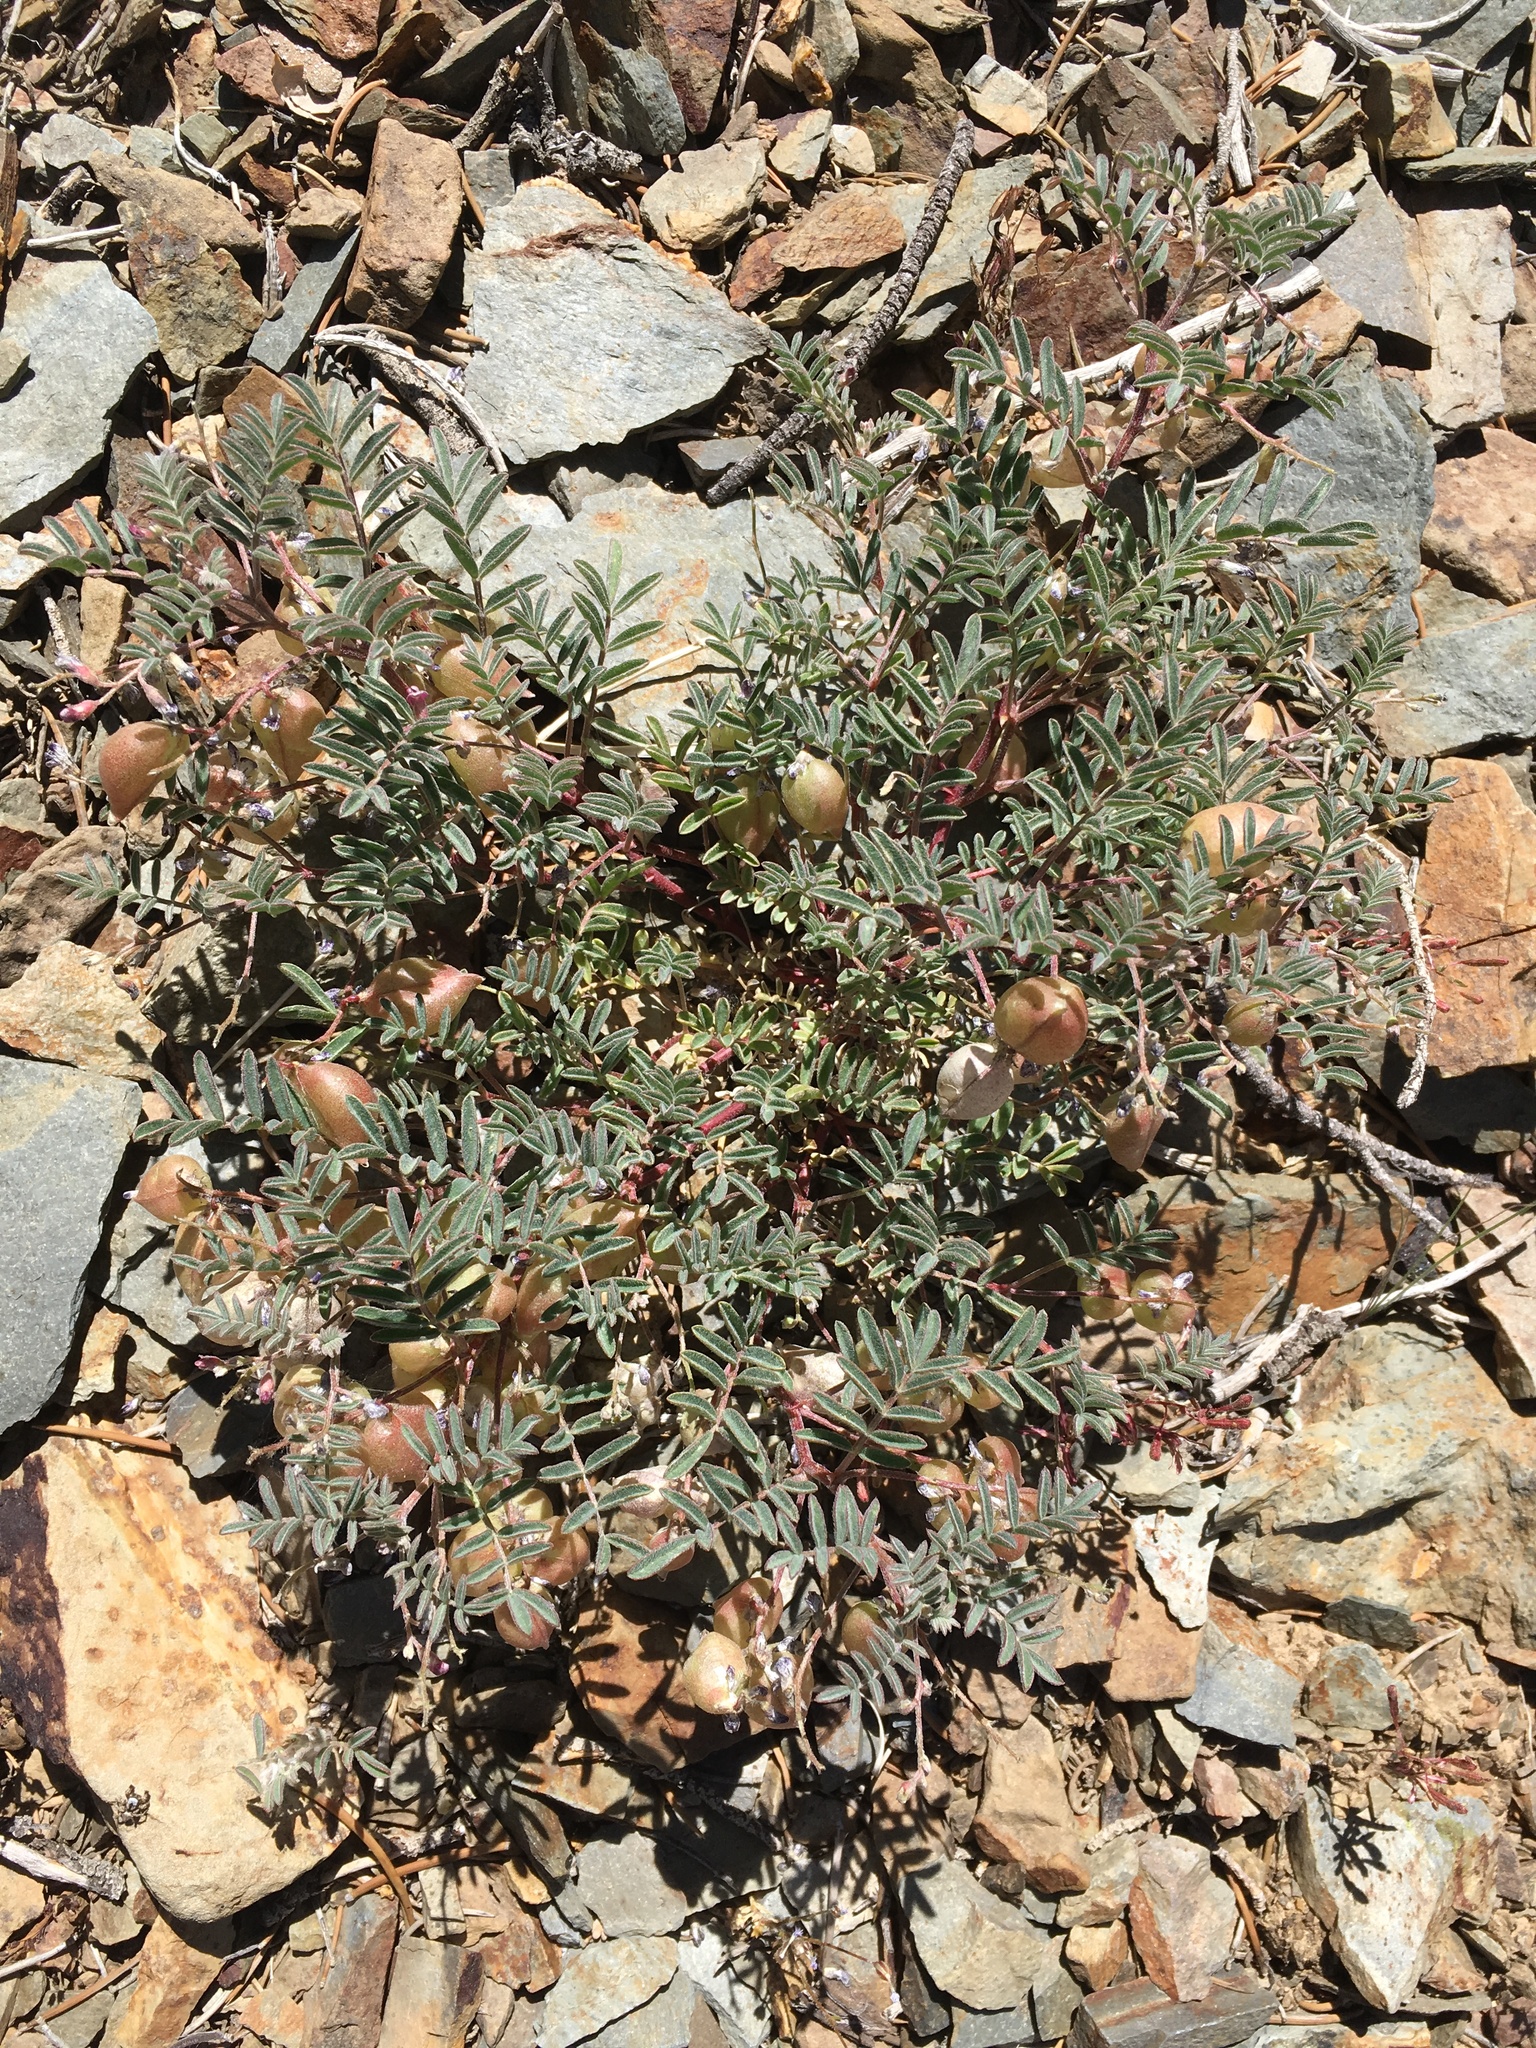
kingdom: Plantae
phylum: Tracheophyta
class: Magnoliopsida
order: Fabales
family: Fabaceae
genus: Astragalus
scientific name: Astragalus gilmanii
